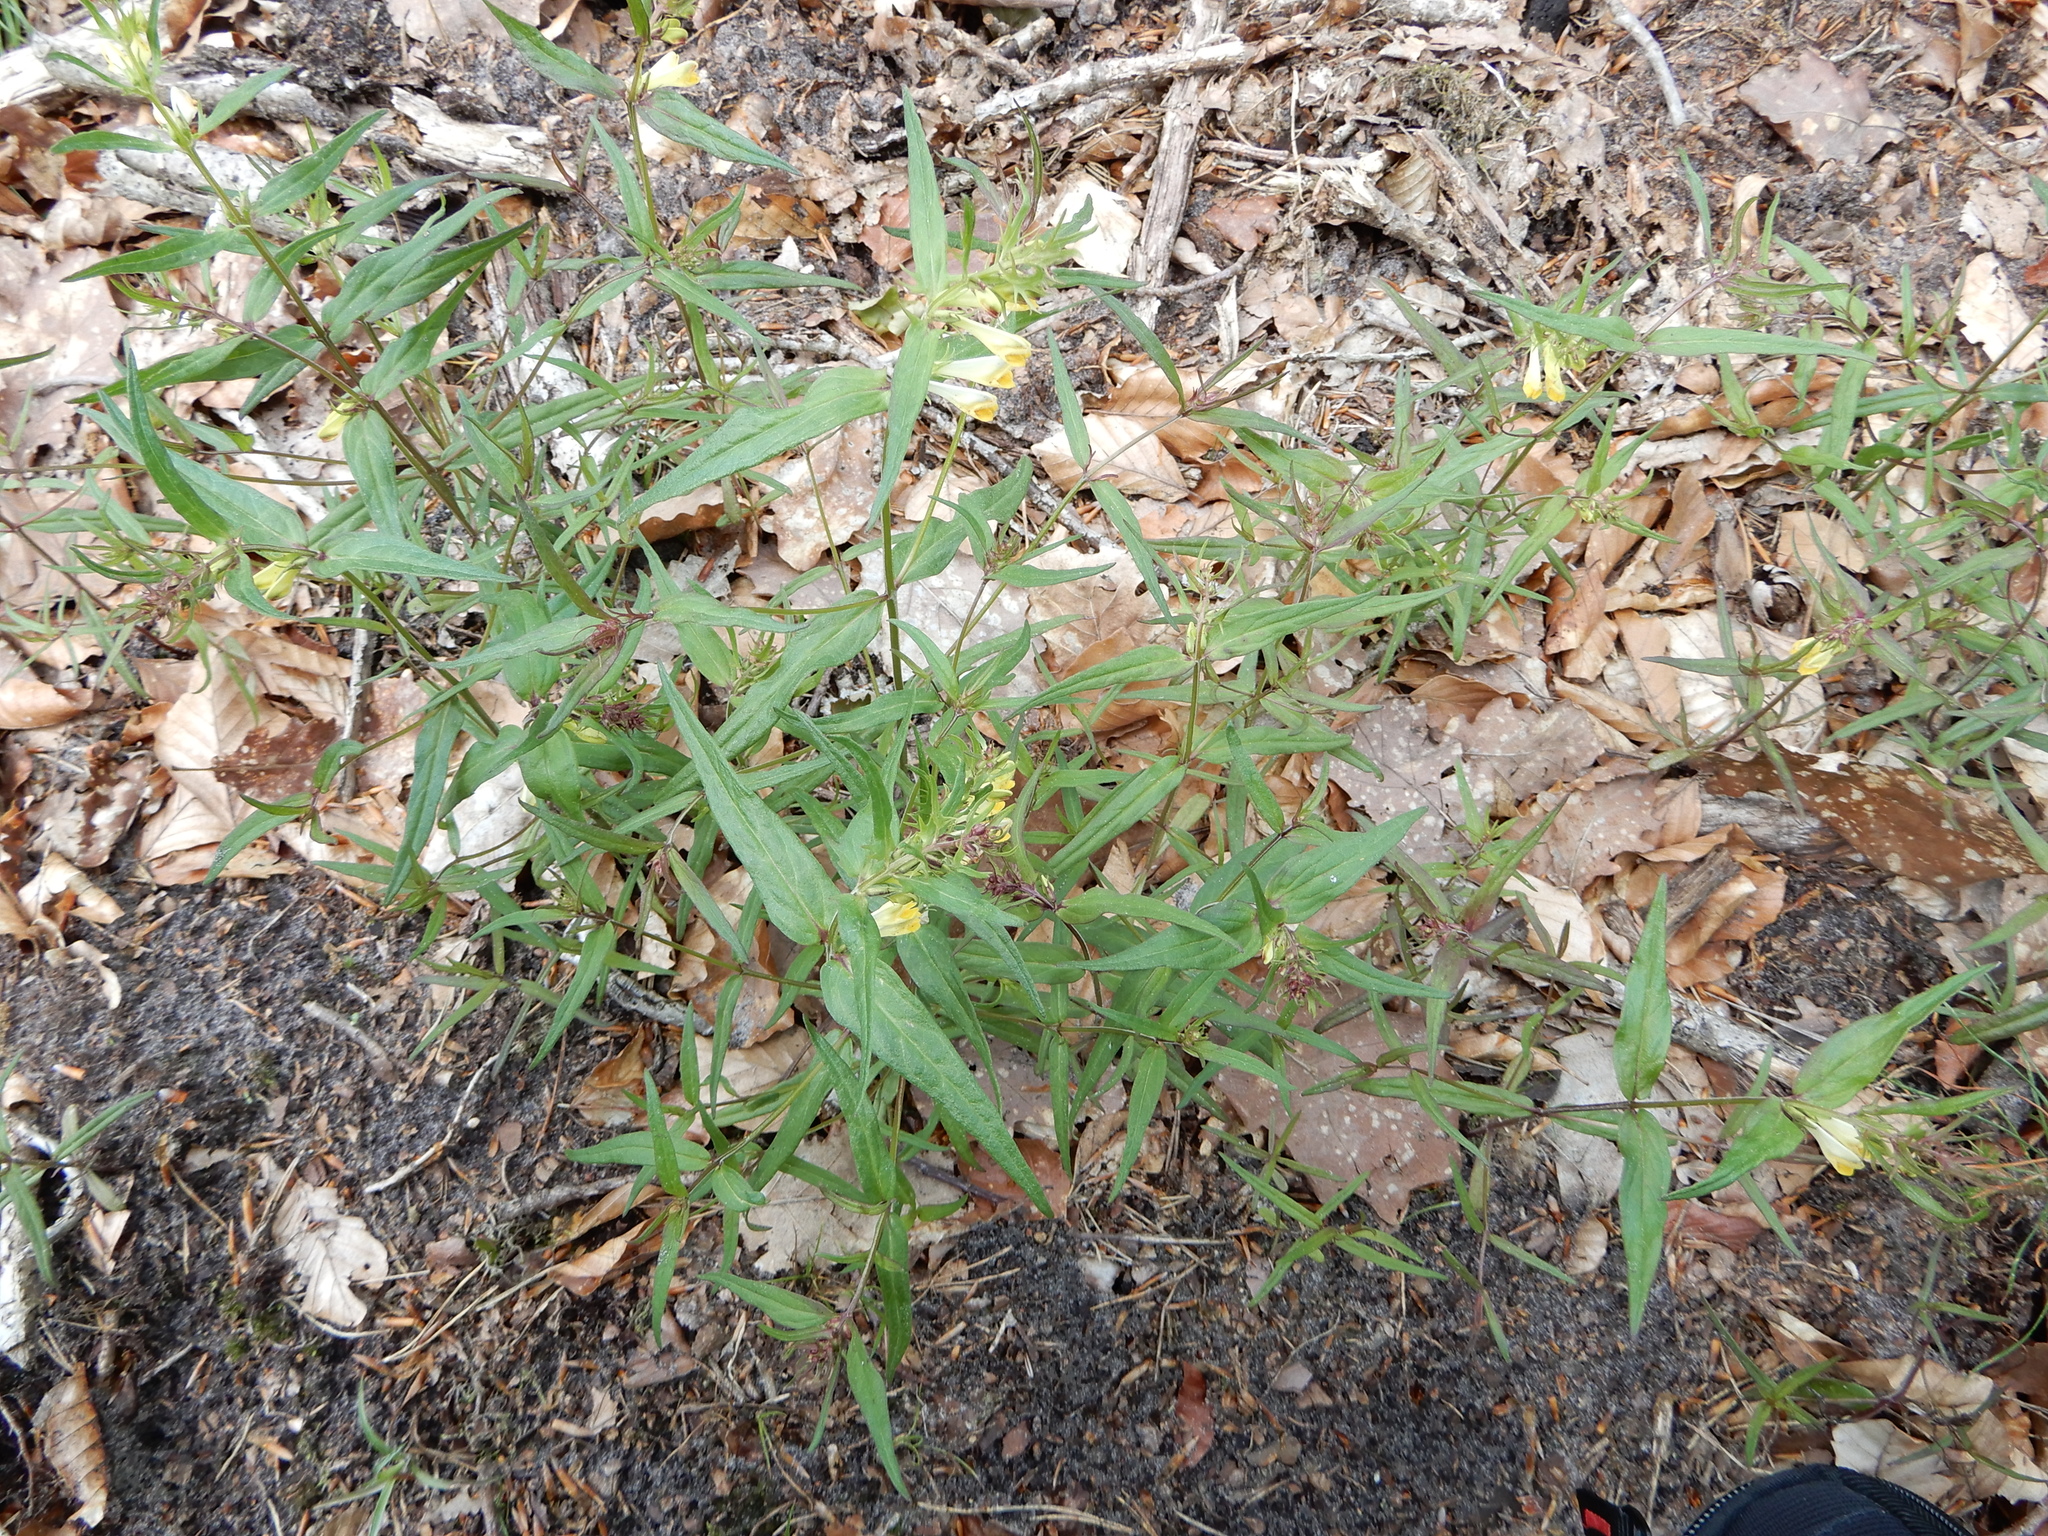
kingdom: Plantae
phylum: Tracheophyta
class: Magnoliopsida
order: Lamiales
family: Orobanchaceae
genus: Melampyrum
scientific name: Melampyrum pratense
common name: Common cow-wheat
